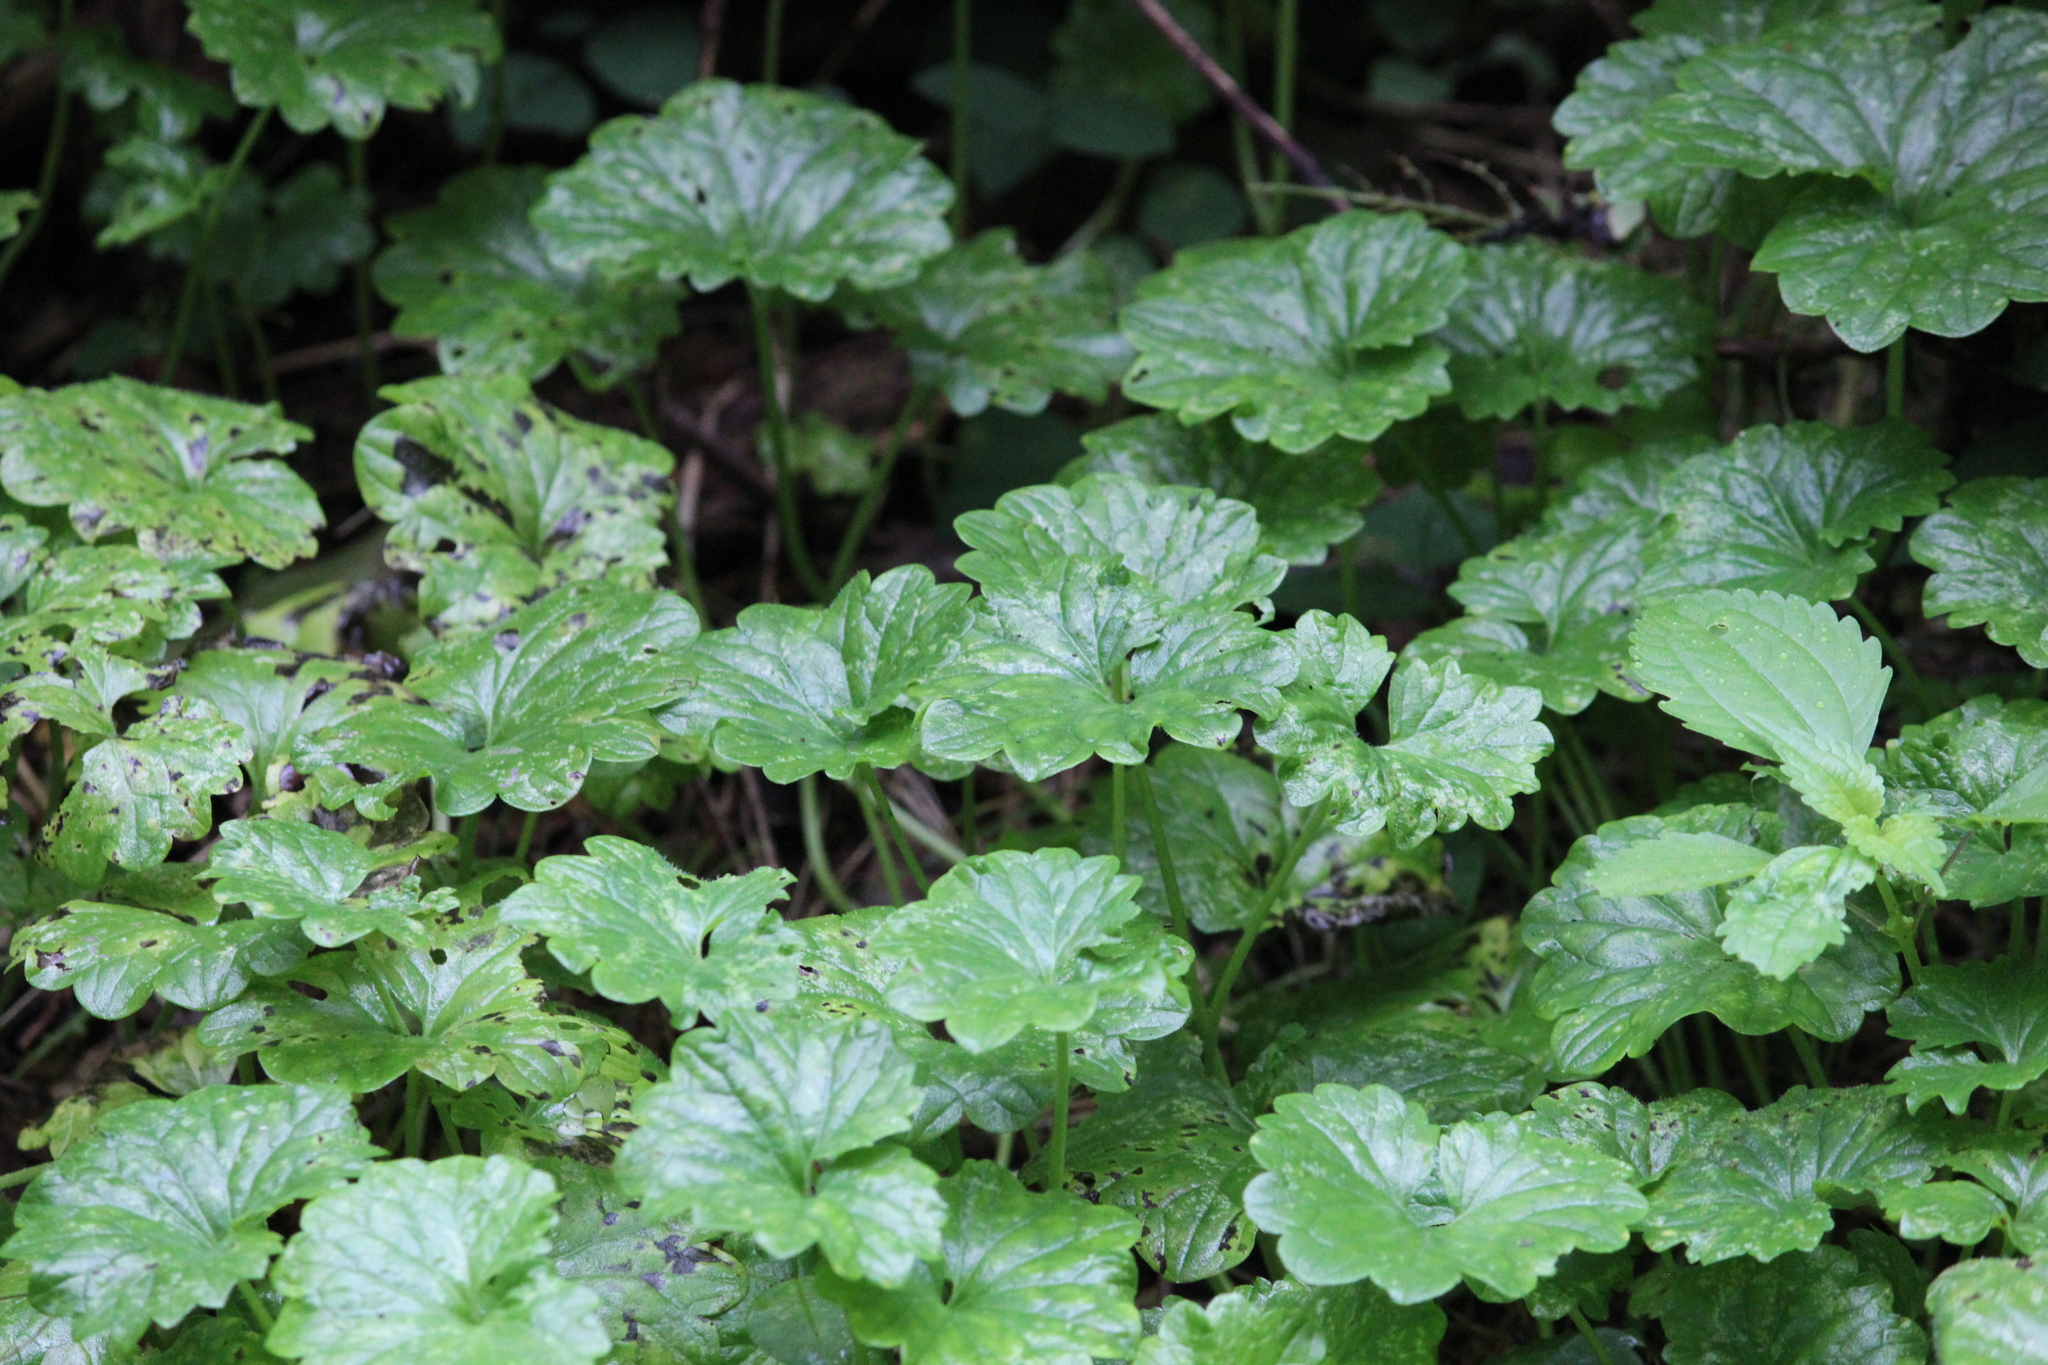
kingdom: Plantae
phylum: Tracheophyta
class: Magnoliopsida
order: Lamiales
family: Lamiaceae
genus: Glechoma
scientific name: Glechoma hederacea
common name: Ground ivy
